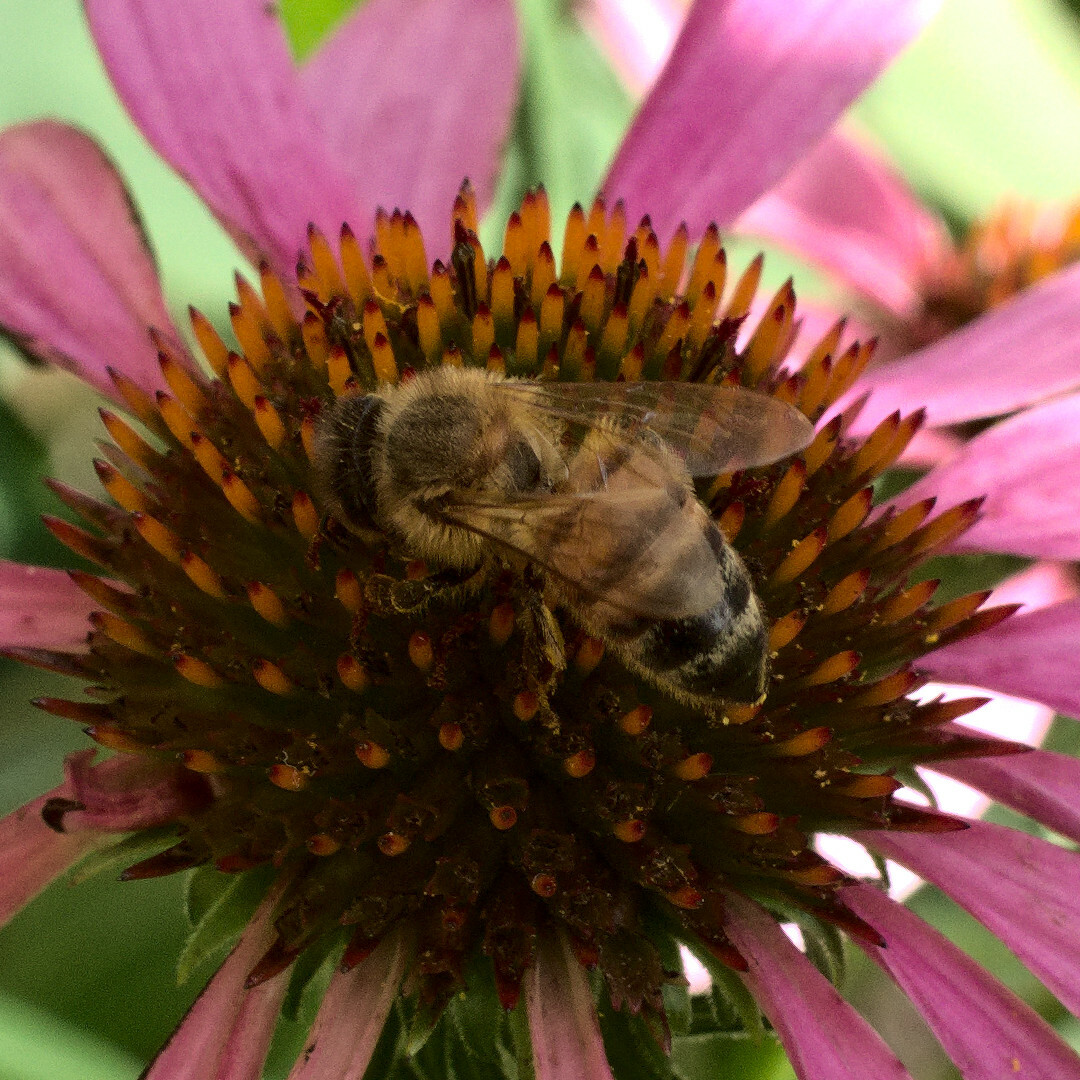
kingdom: Animalia
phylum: Arthropoda
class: Insecta
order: Hymenoptera
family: Apidae
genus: Apis
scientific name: Apis mellifera
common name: Honey bee
